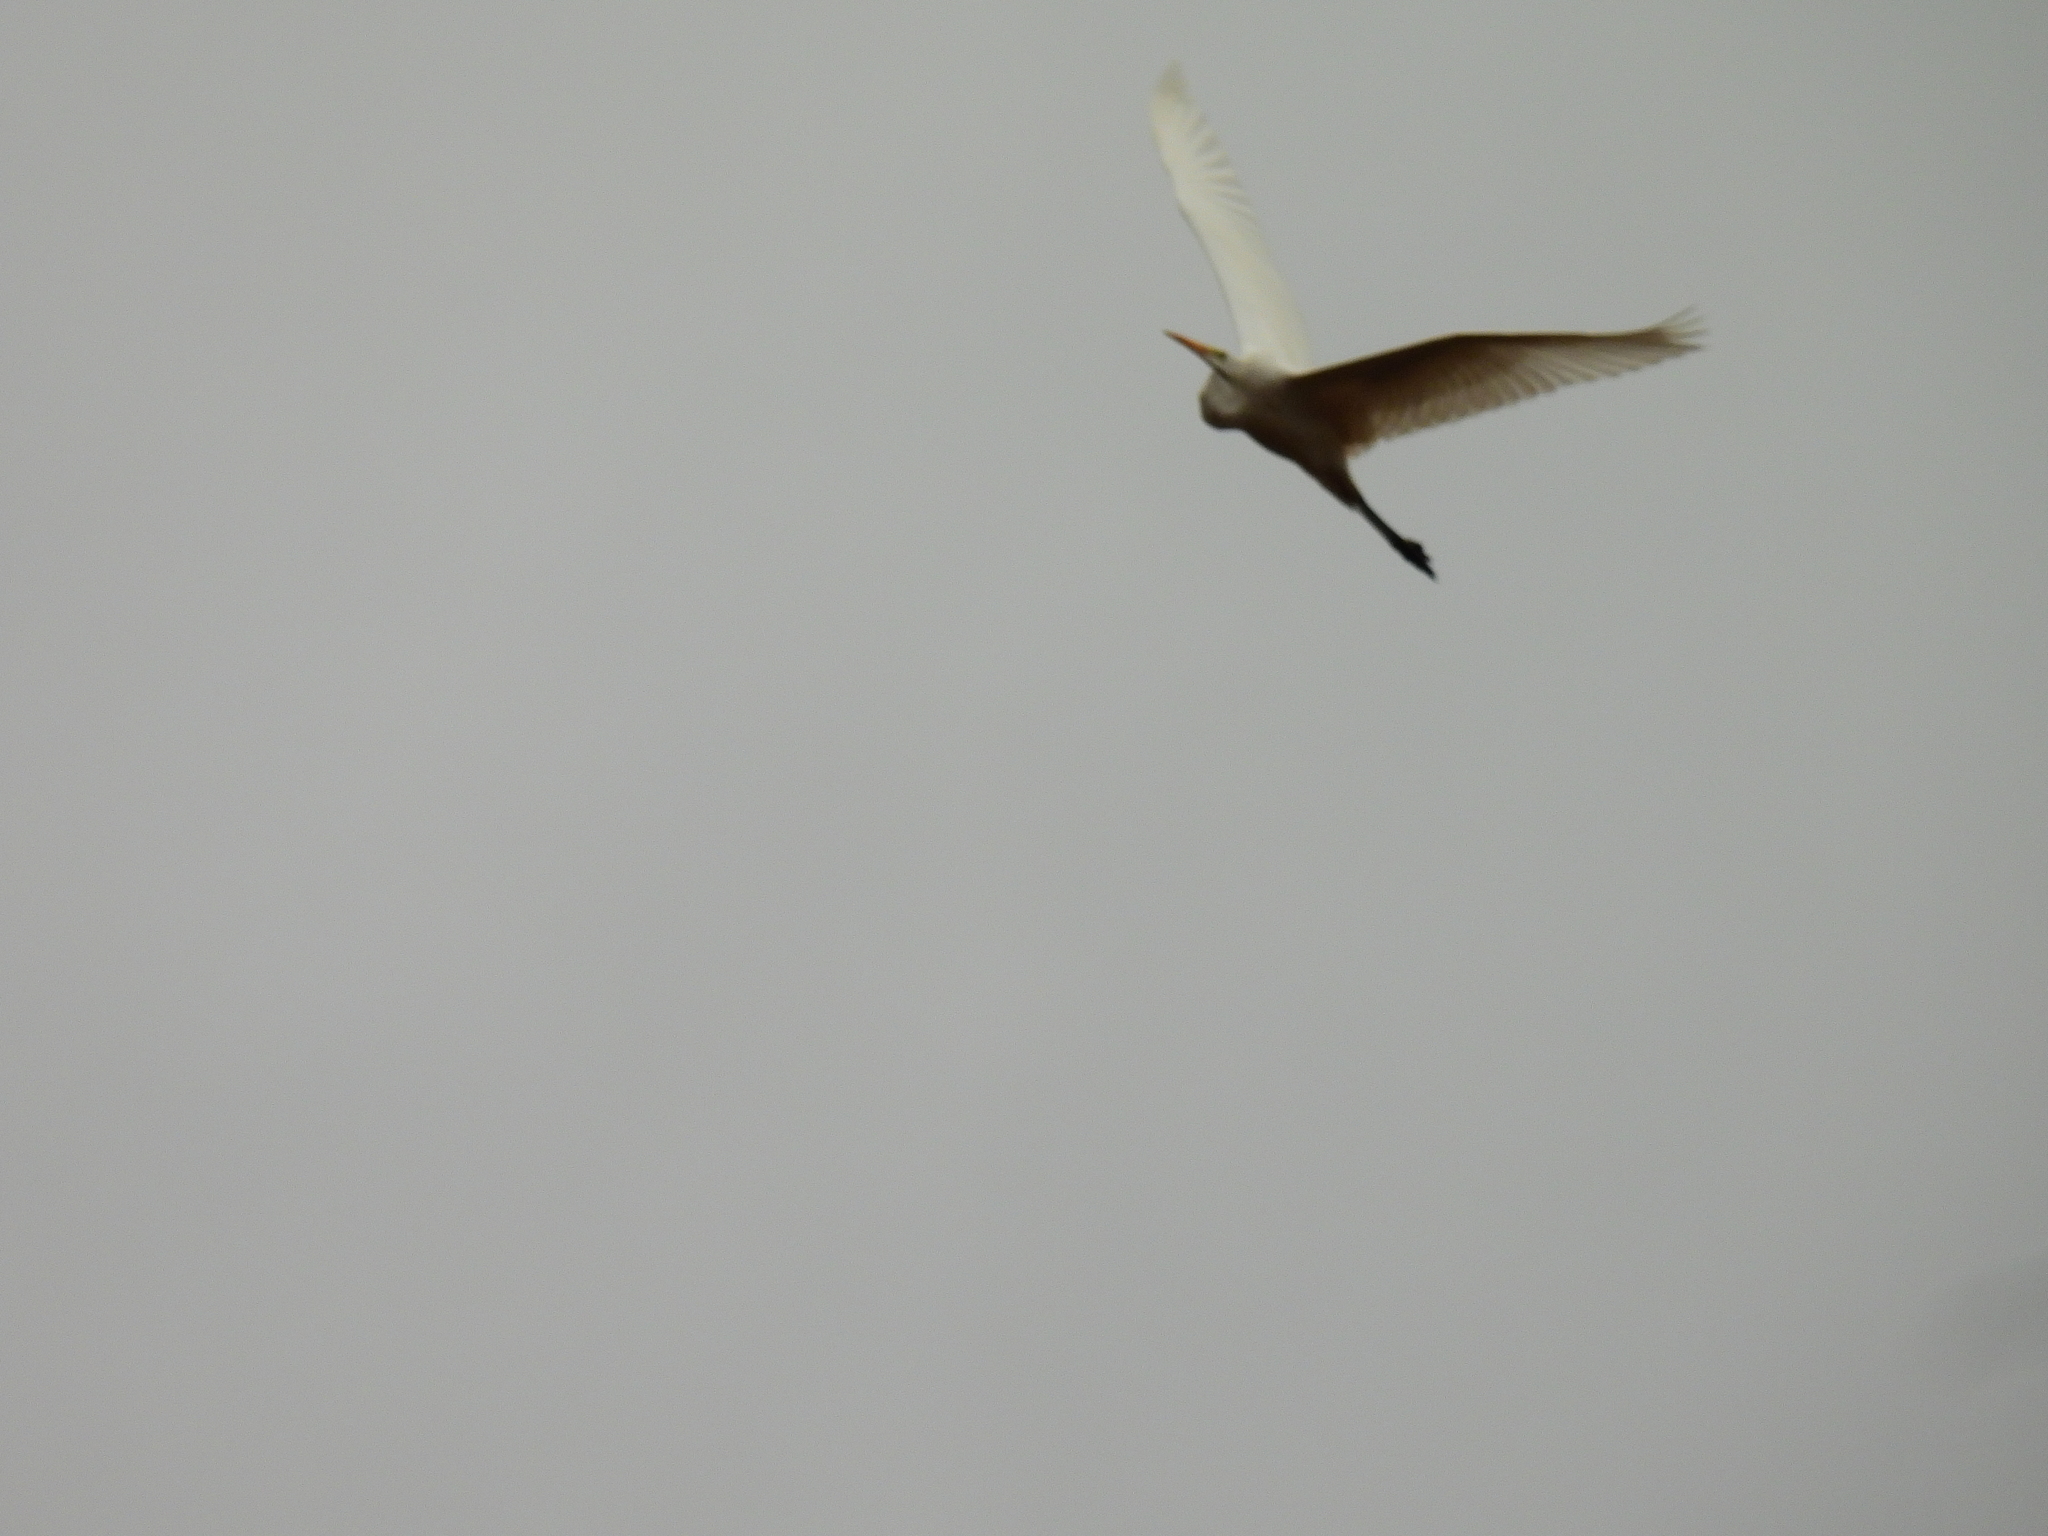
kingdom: Animalia
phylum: Chordata
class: Aves
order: Pelecaniformes
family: Ardeidae
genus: Ardea
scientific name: Ardea alba
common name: Great egret
